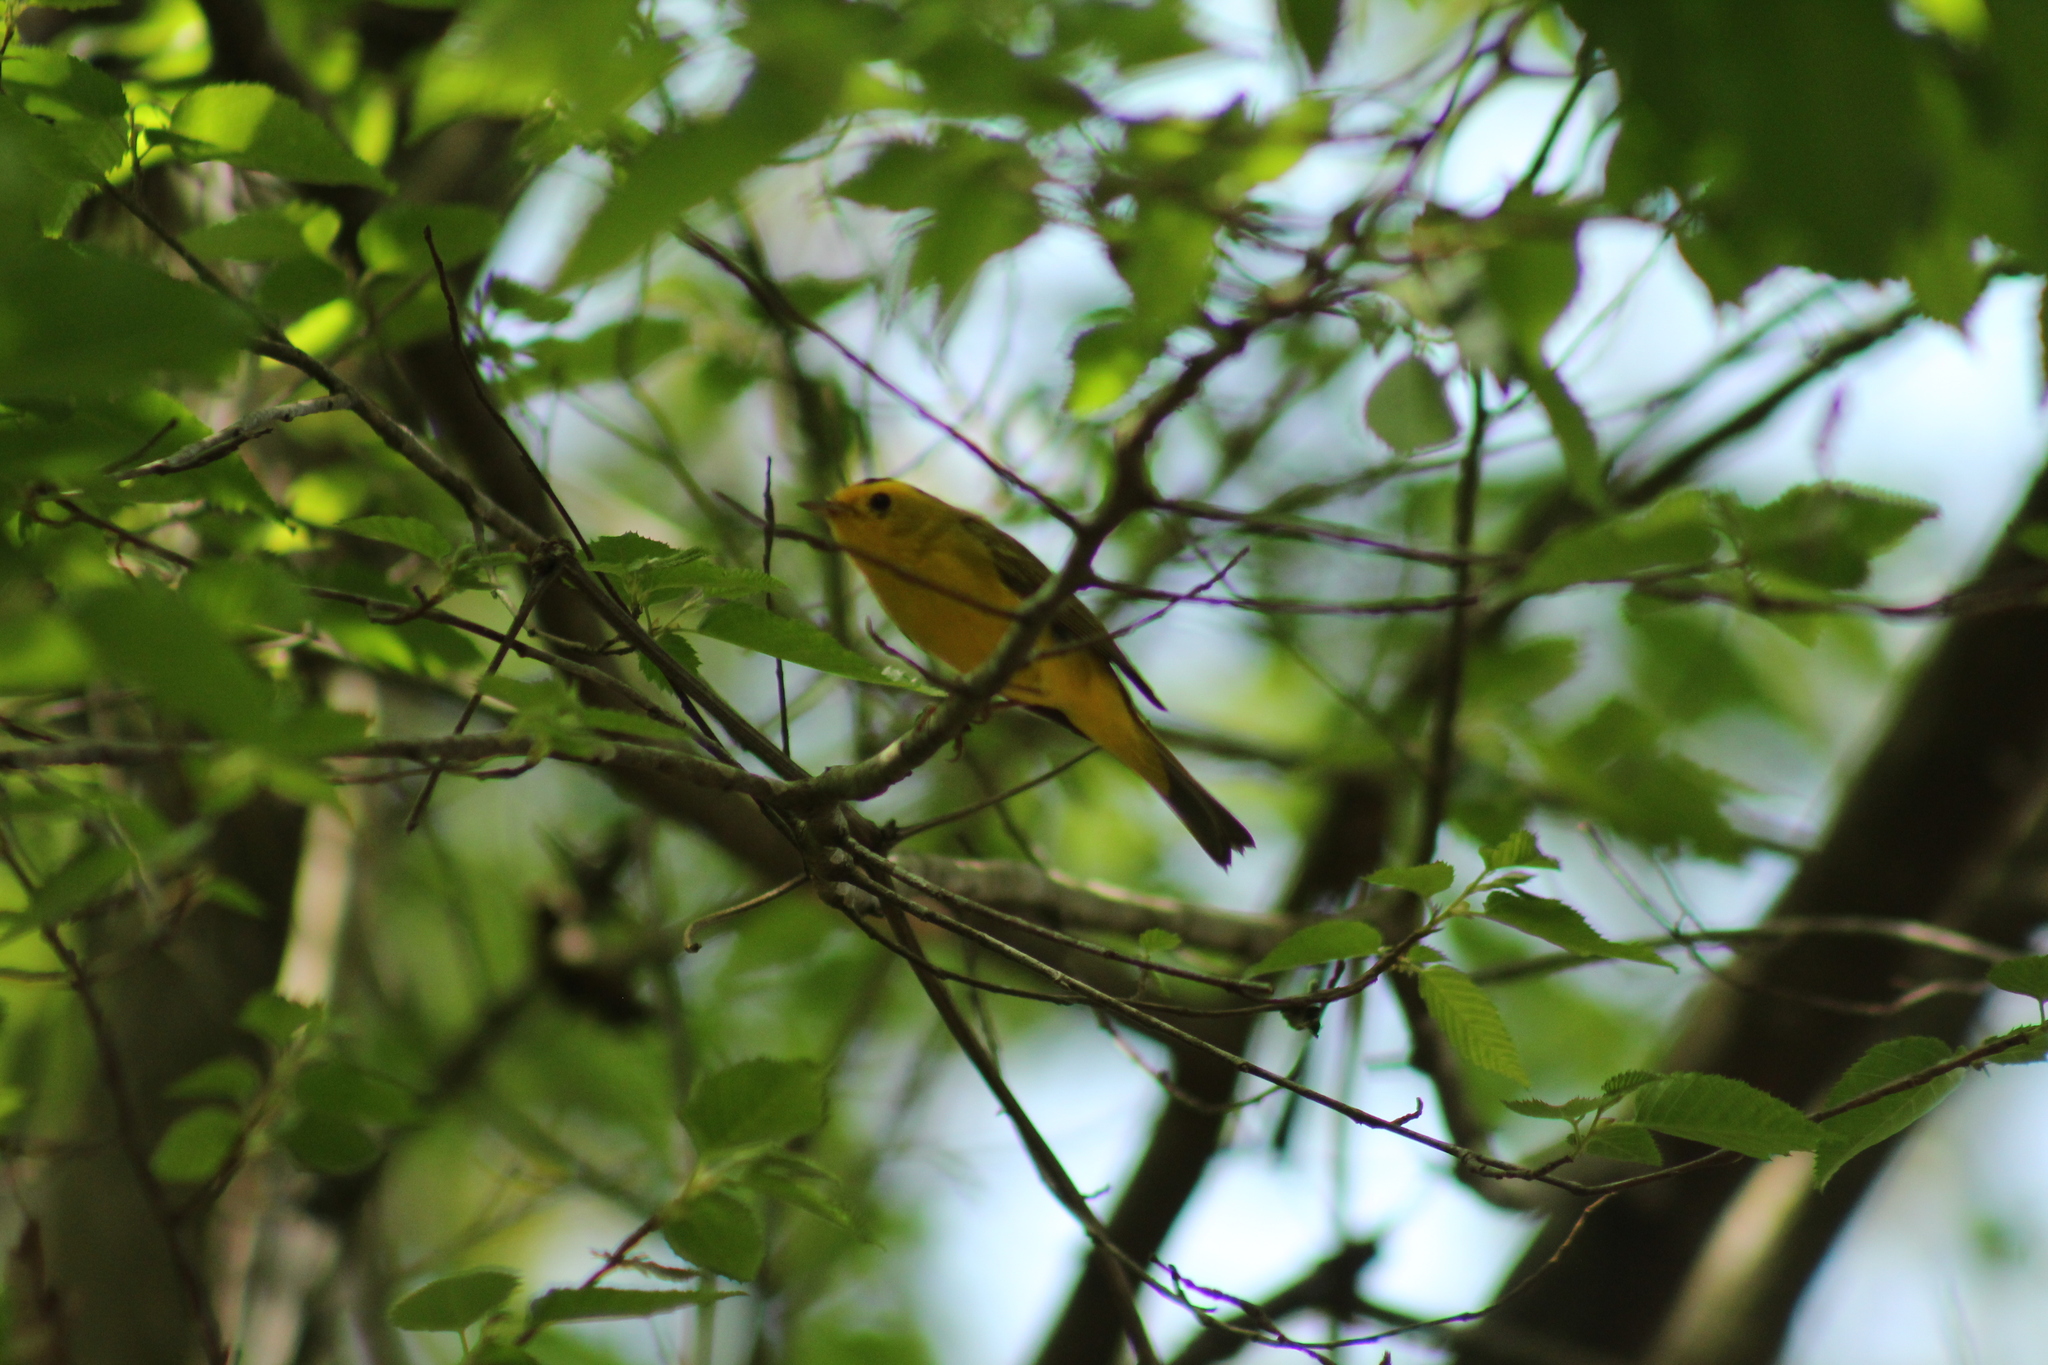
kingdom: Animalia
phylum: Chordata
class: Aves
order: Passeriformes
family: Parulidae
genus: Cardellina
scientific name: Cardellina pusilla
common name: Wilson's warbler
